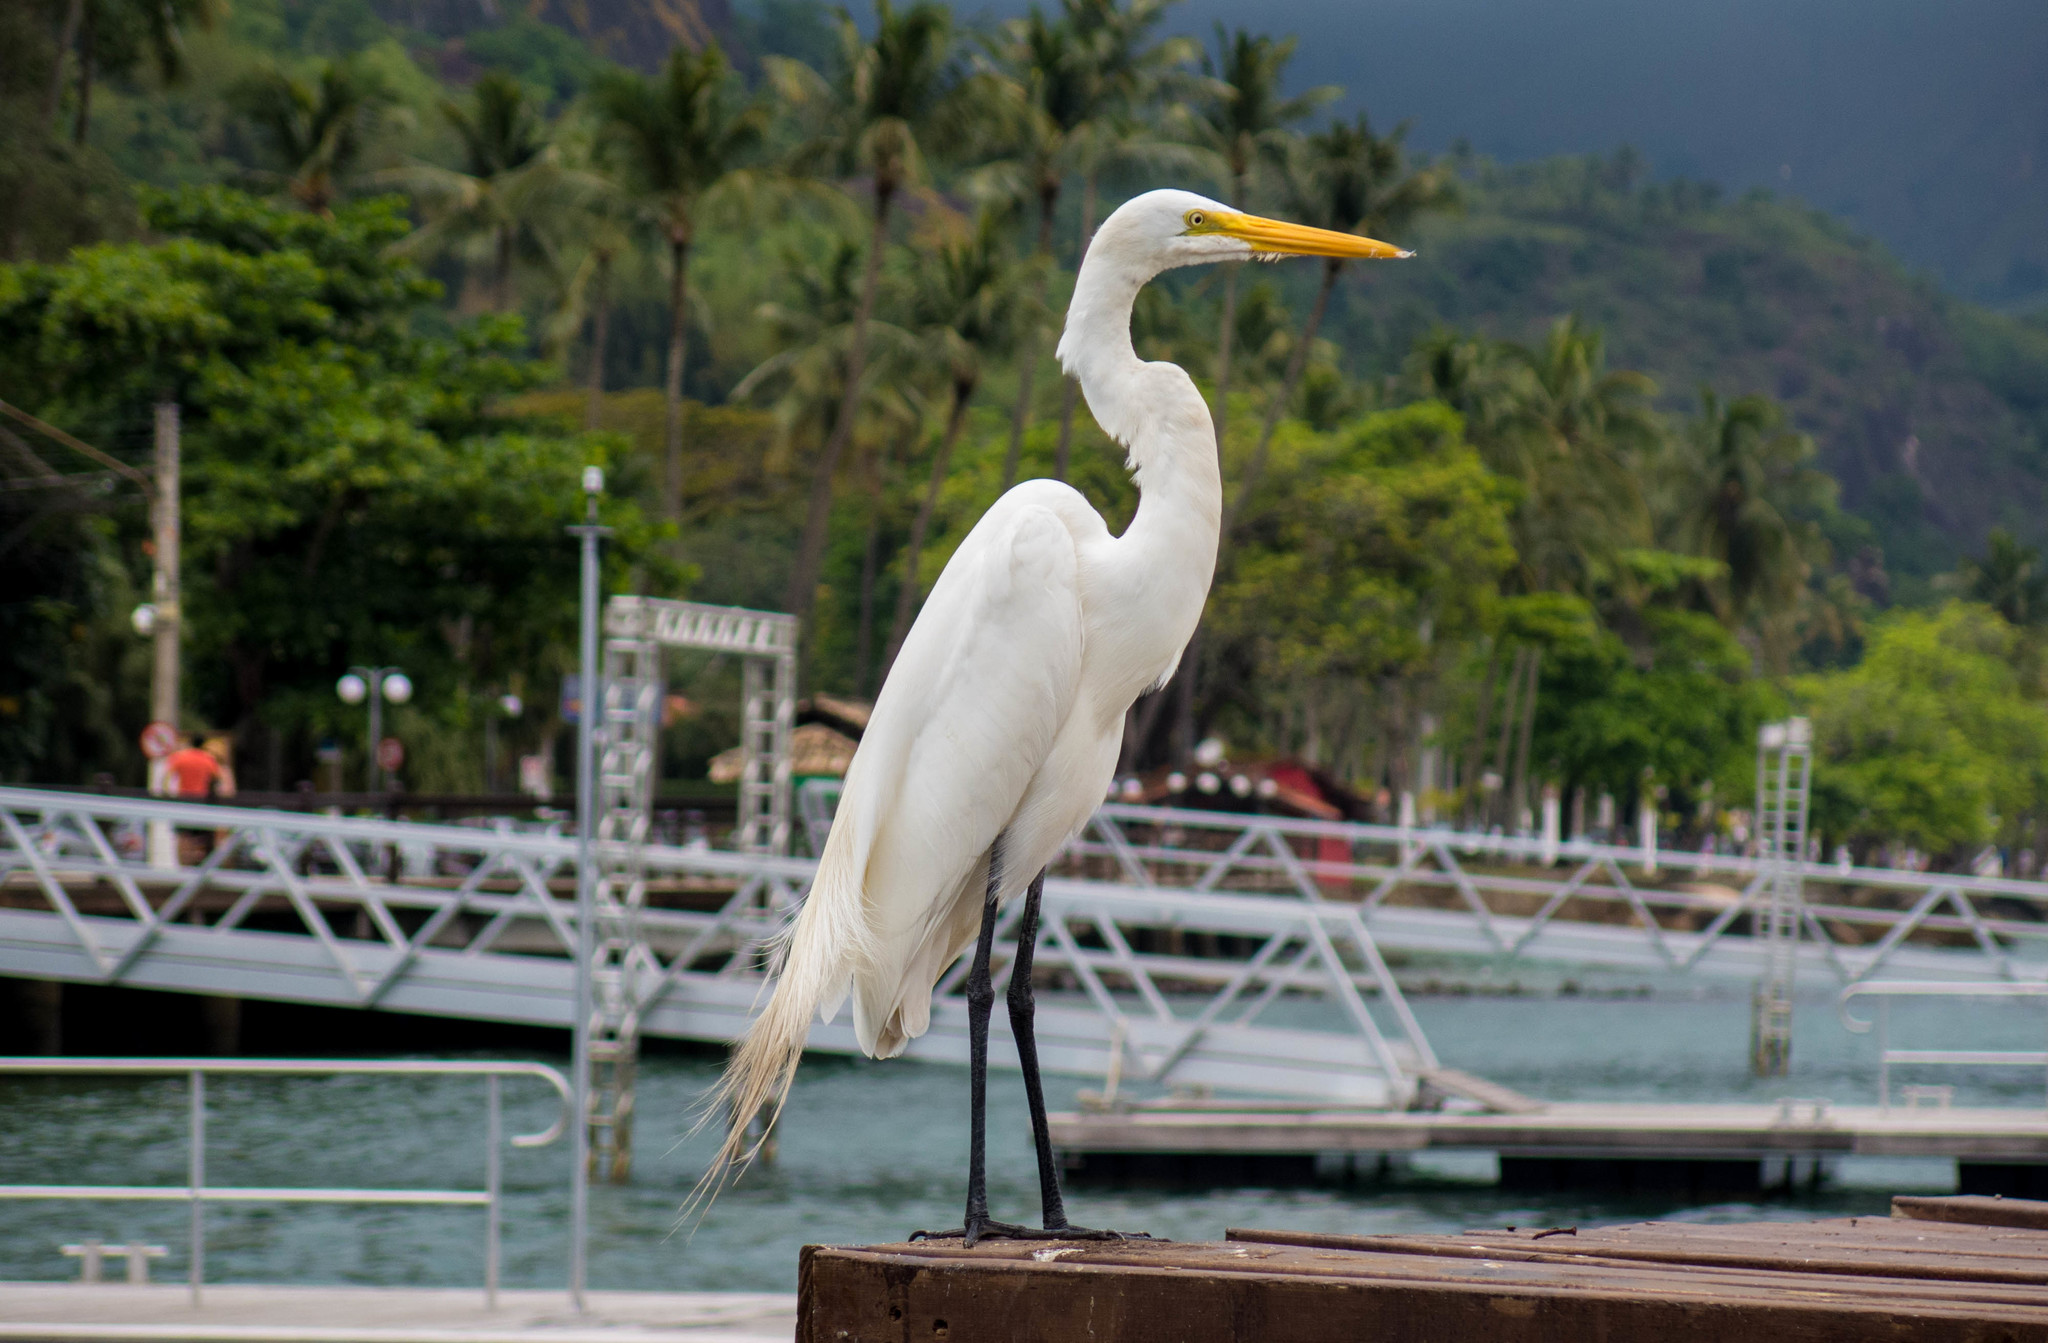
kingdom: Animalia
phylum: Chordata
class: Aves
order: Pelecaniformes
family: Ardeidae
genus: Ardea
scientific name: Ardea alba
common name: Great egret
